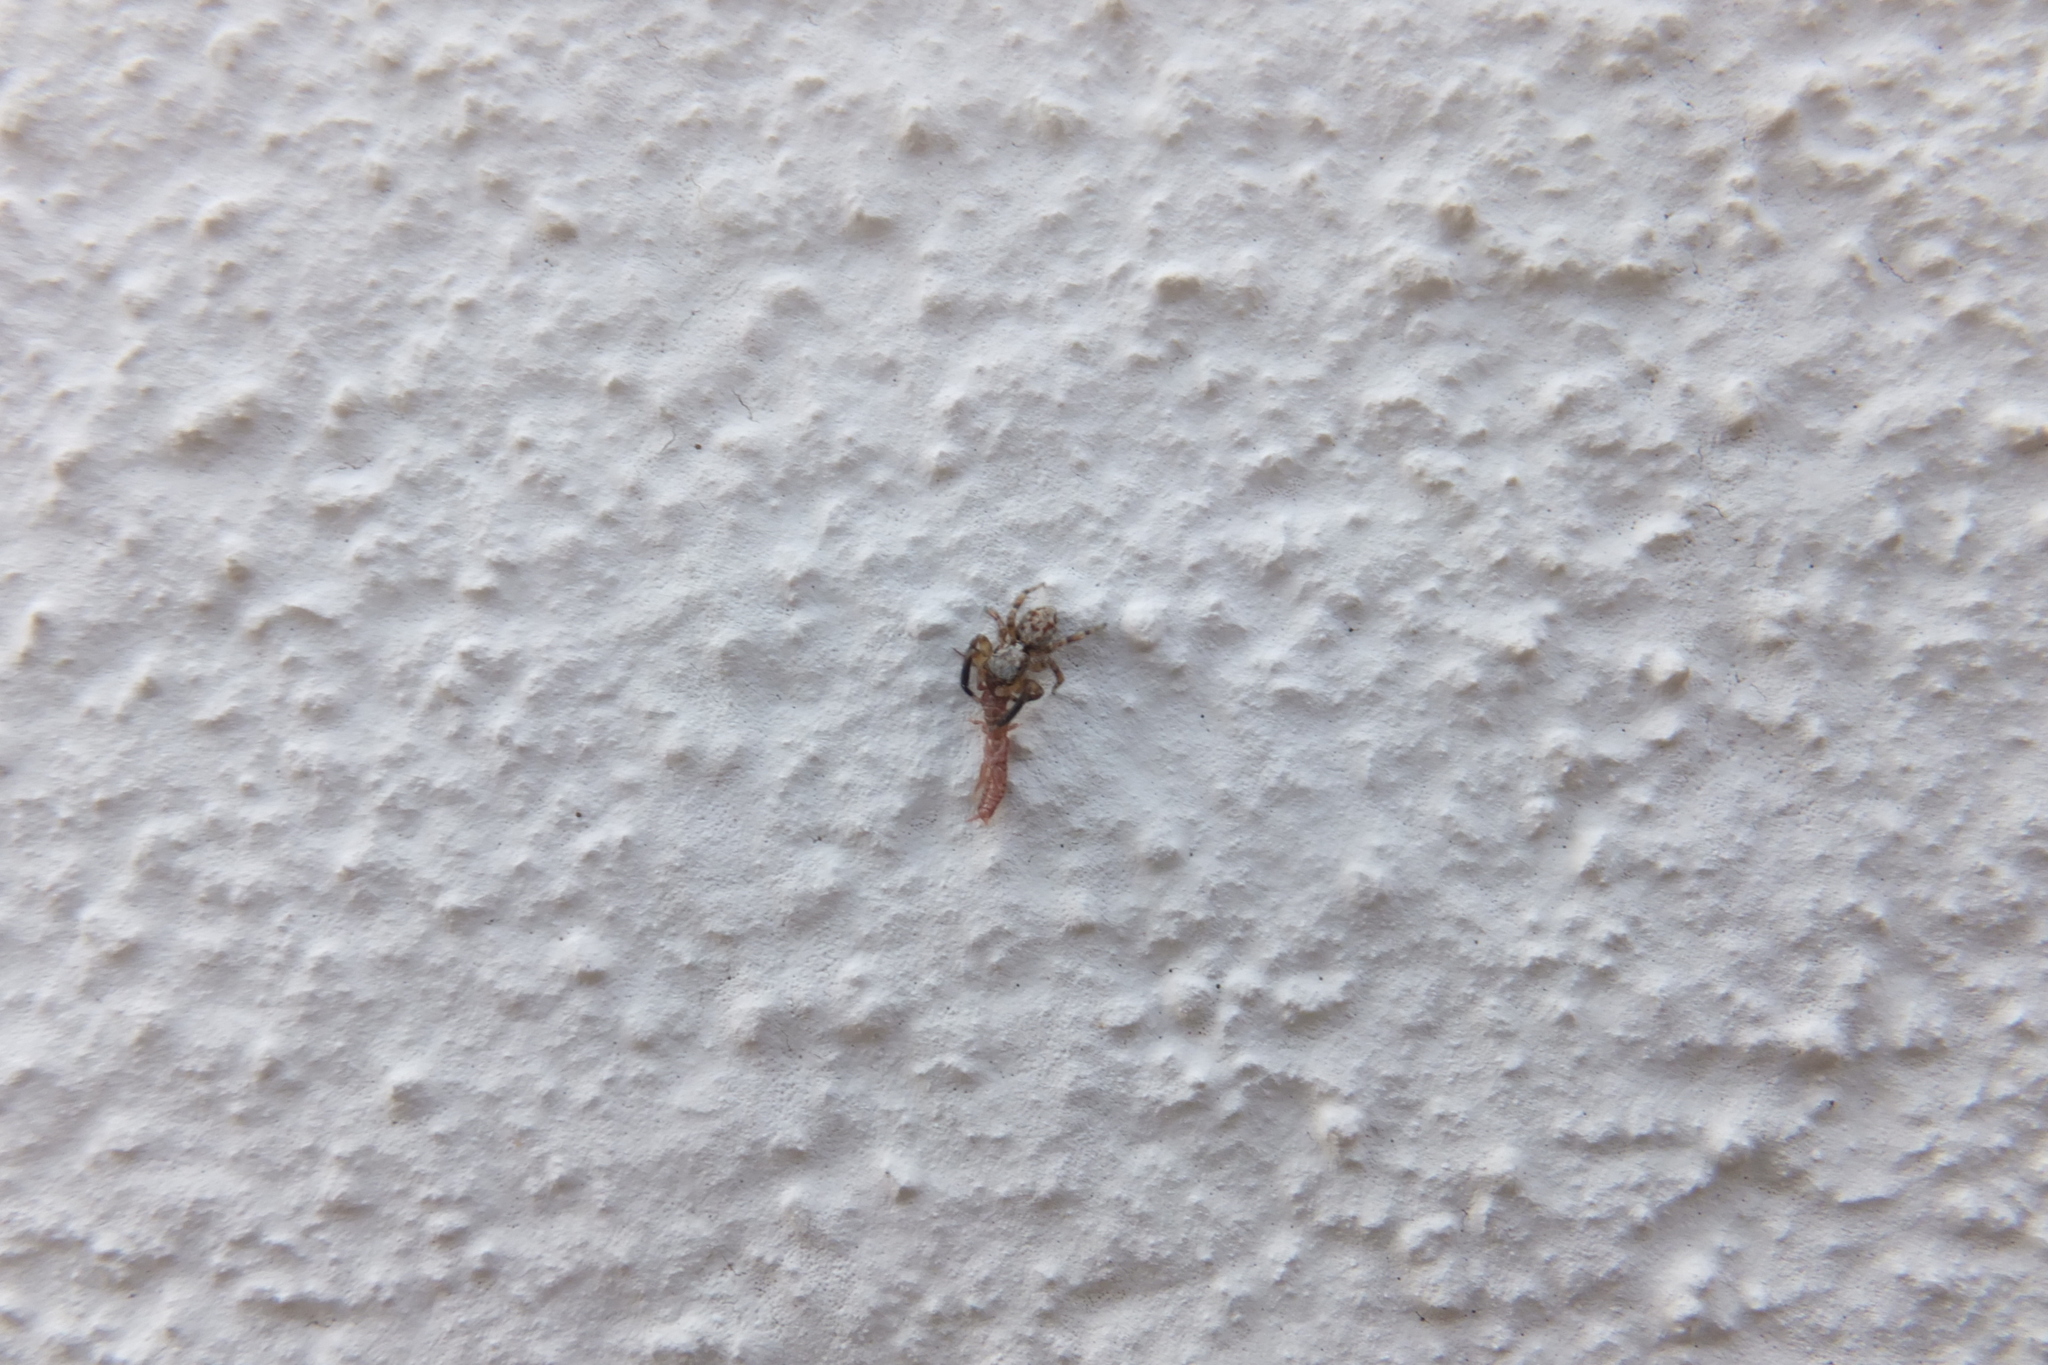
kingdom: Animalia
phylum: Arthropoda
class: Arachnida
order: Araneae
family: Salticidae
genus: Pseudeuophrys
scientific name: Pseudeuophrys vafra
